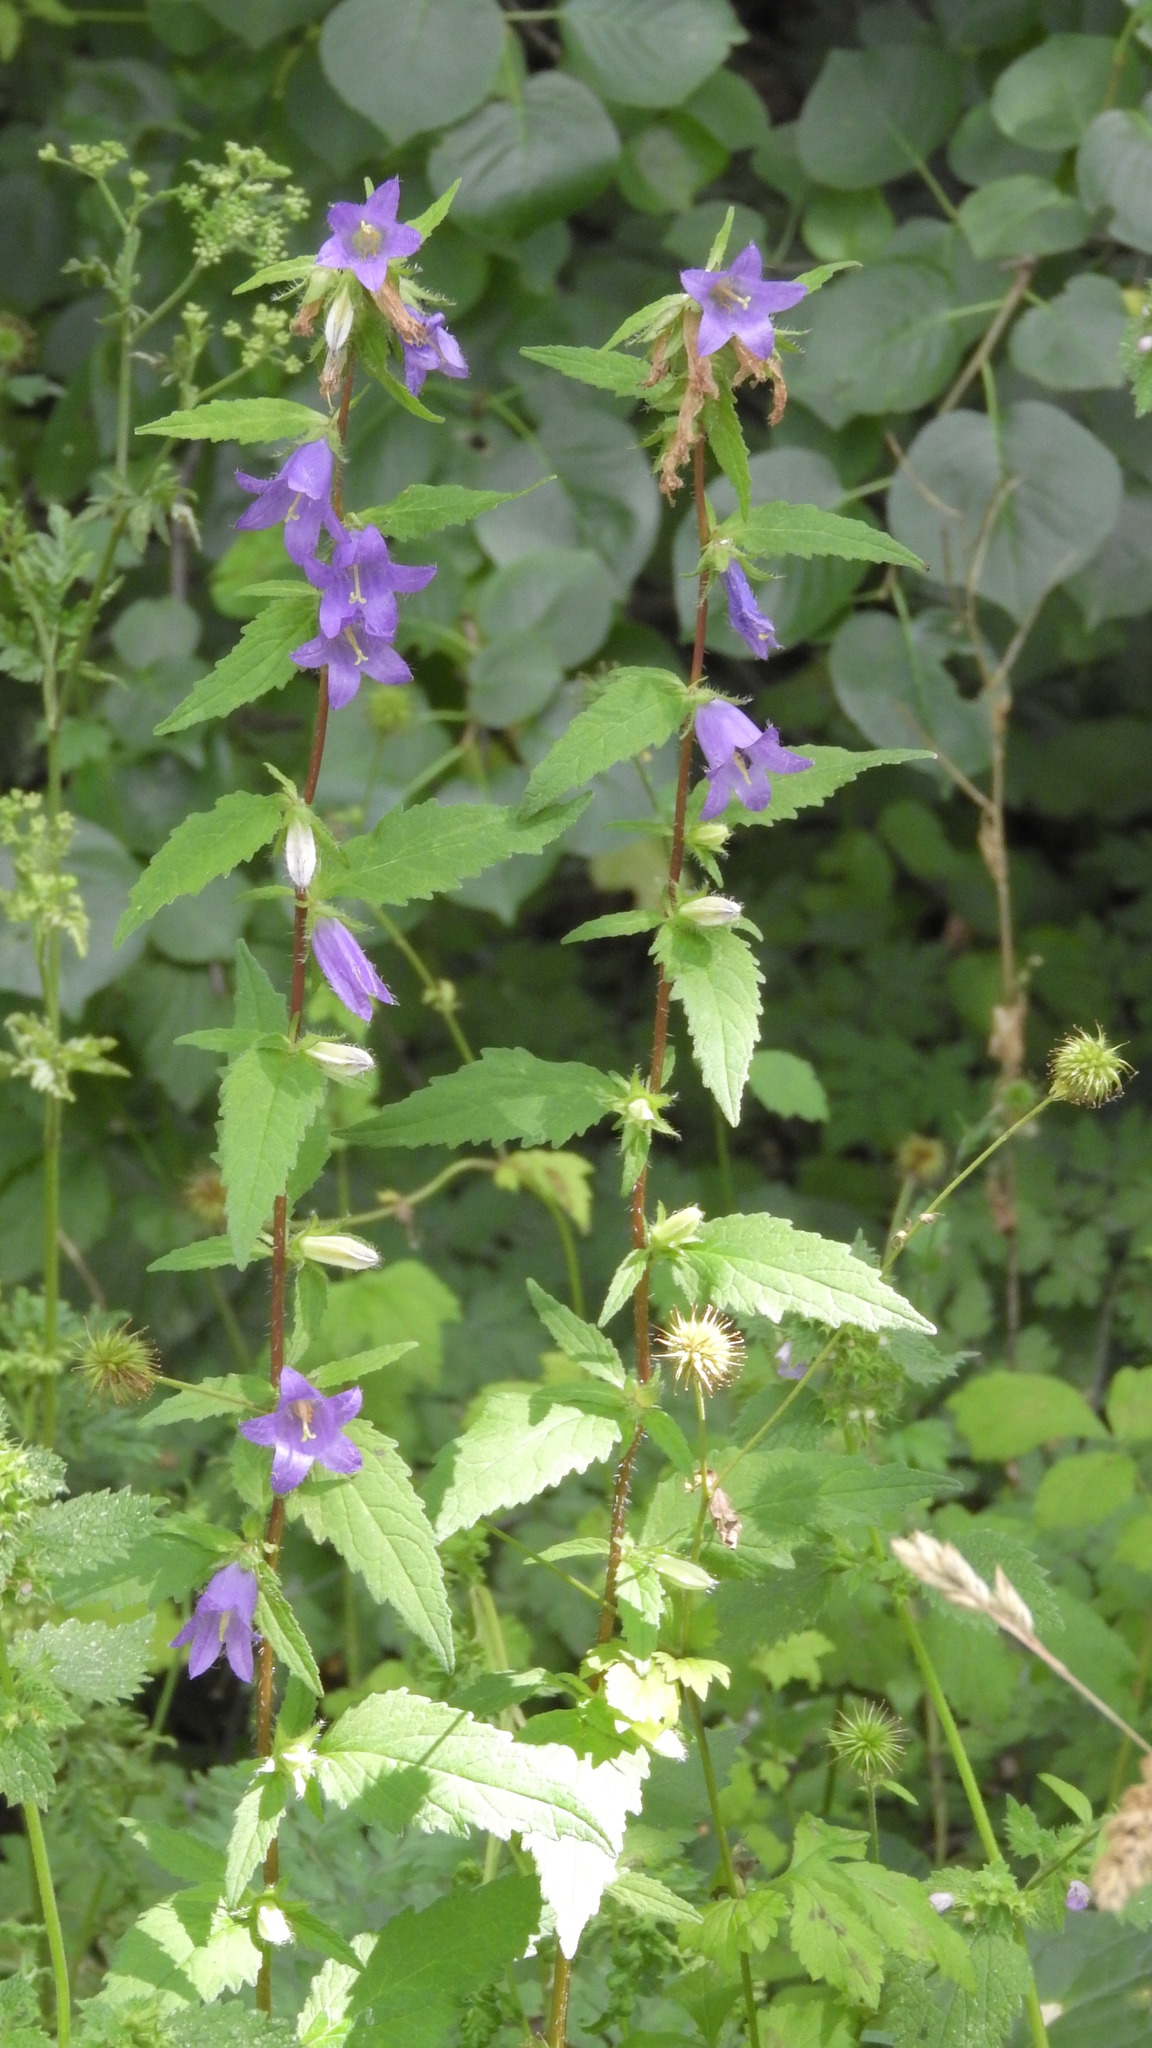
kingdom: Plantae
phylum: Tracheophyta
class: Magnoliopsida
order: Asterales
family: Campanulaceae
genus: Campanula
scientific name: Campanula trachelium
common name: Nettle-leaved bellflower
